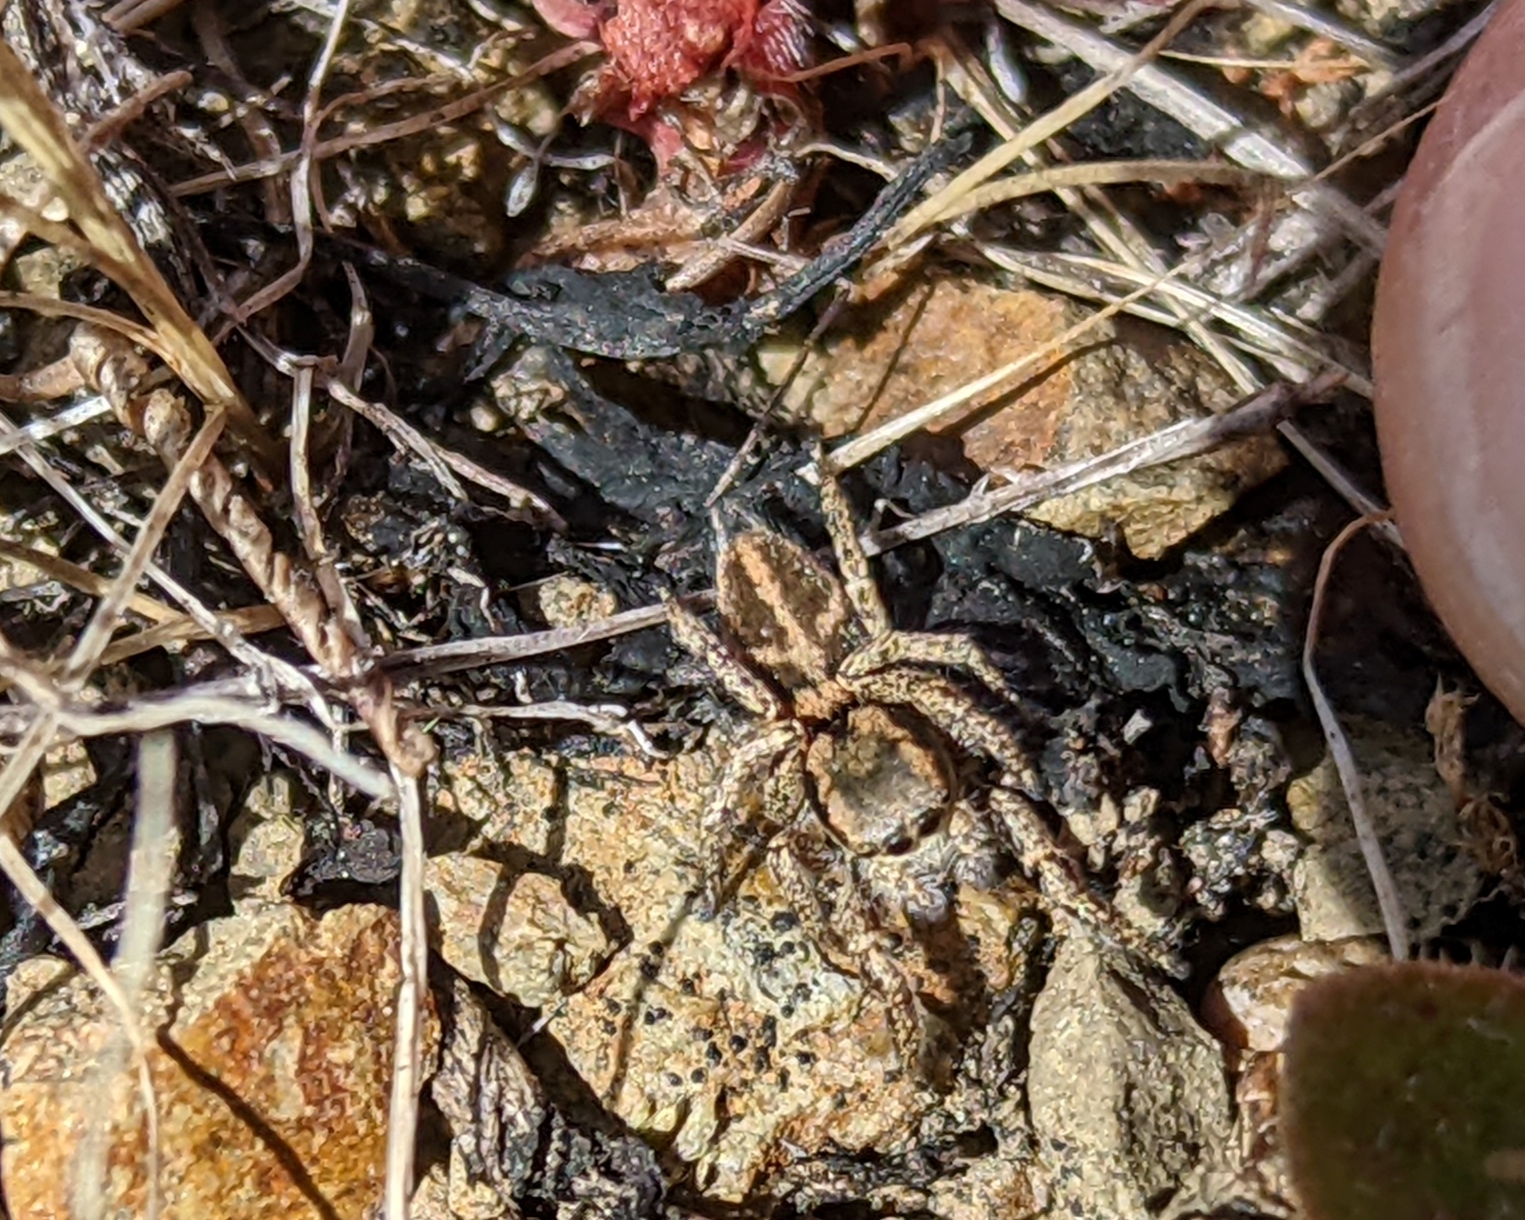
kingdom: Animalia
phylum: Arthropoda
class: Arachnida
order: Araneae
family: Salticidae
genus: Habronattus
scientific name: Habronattus klauseri
